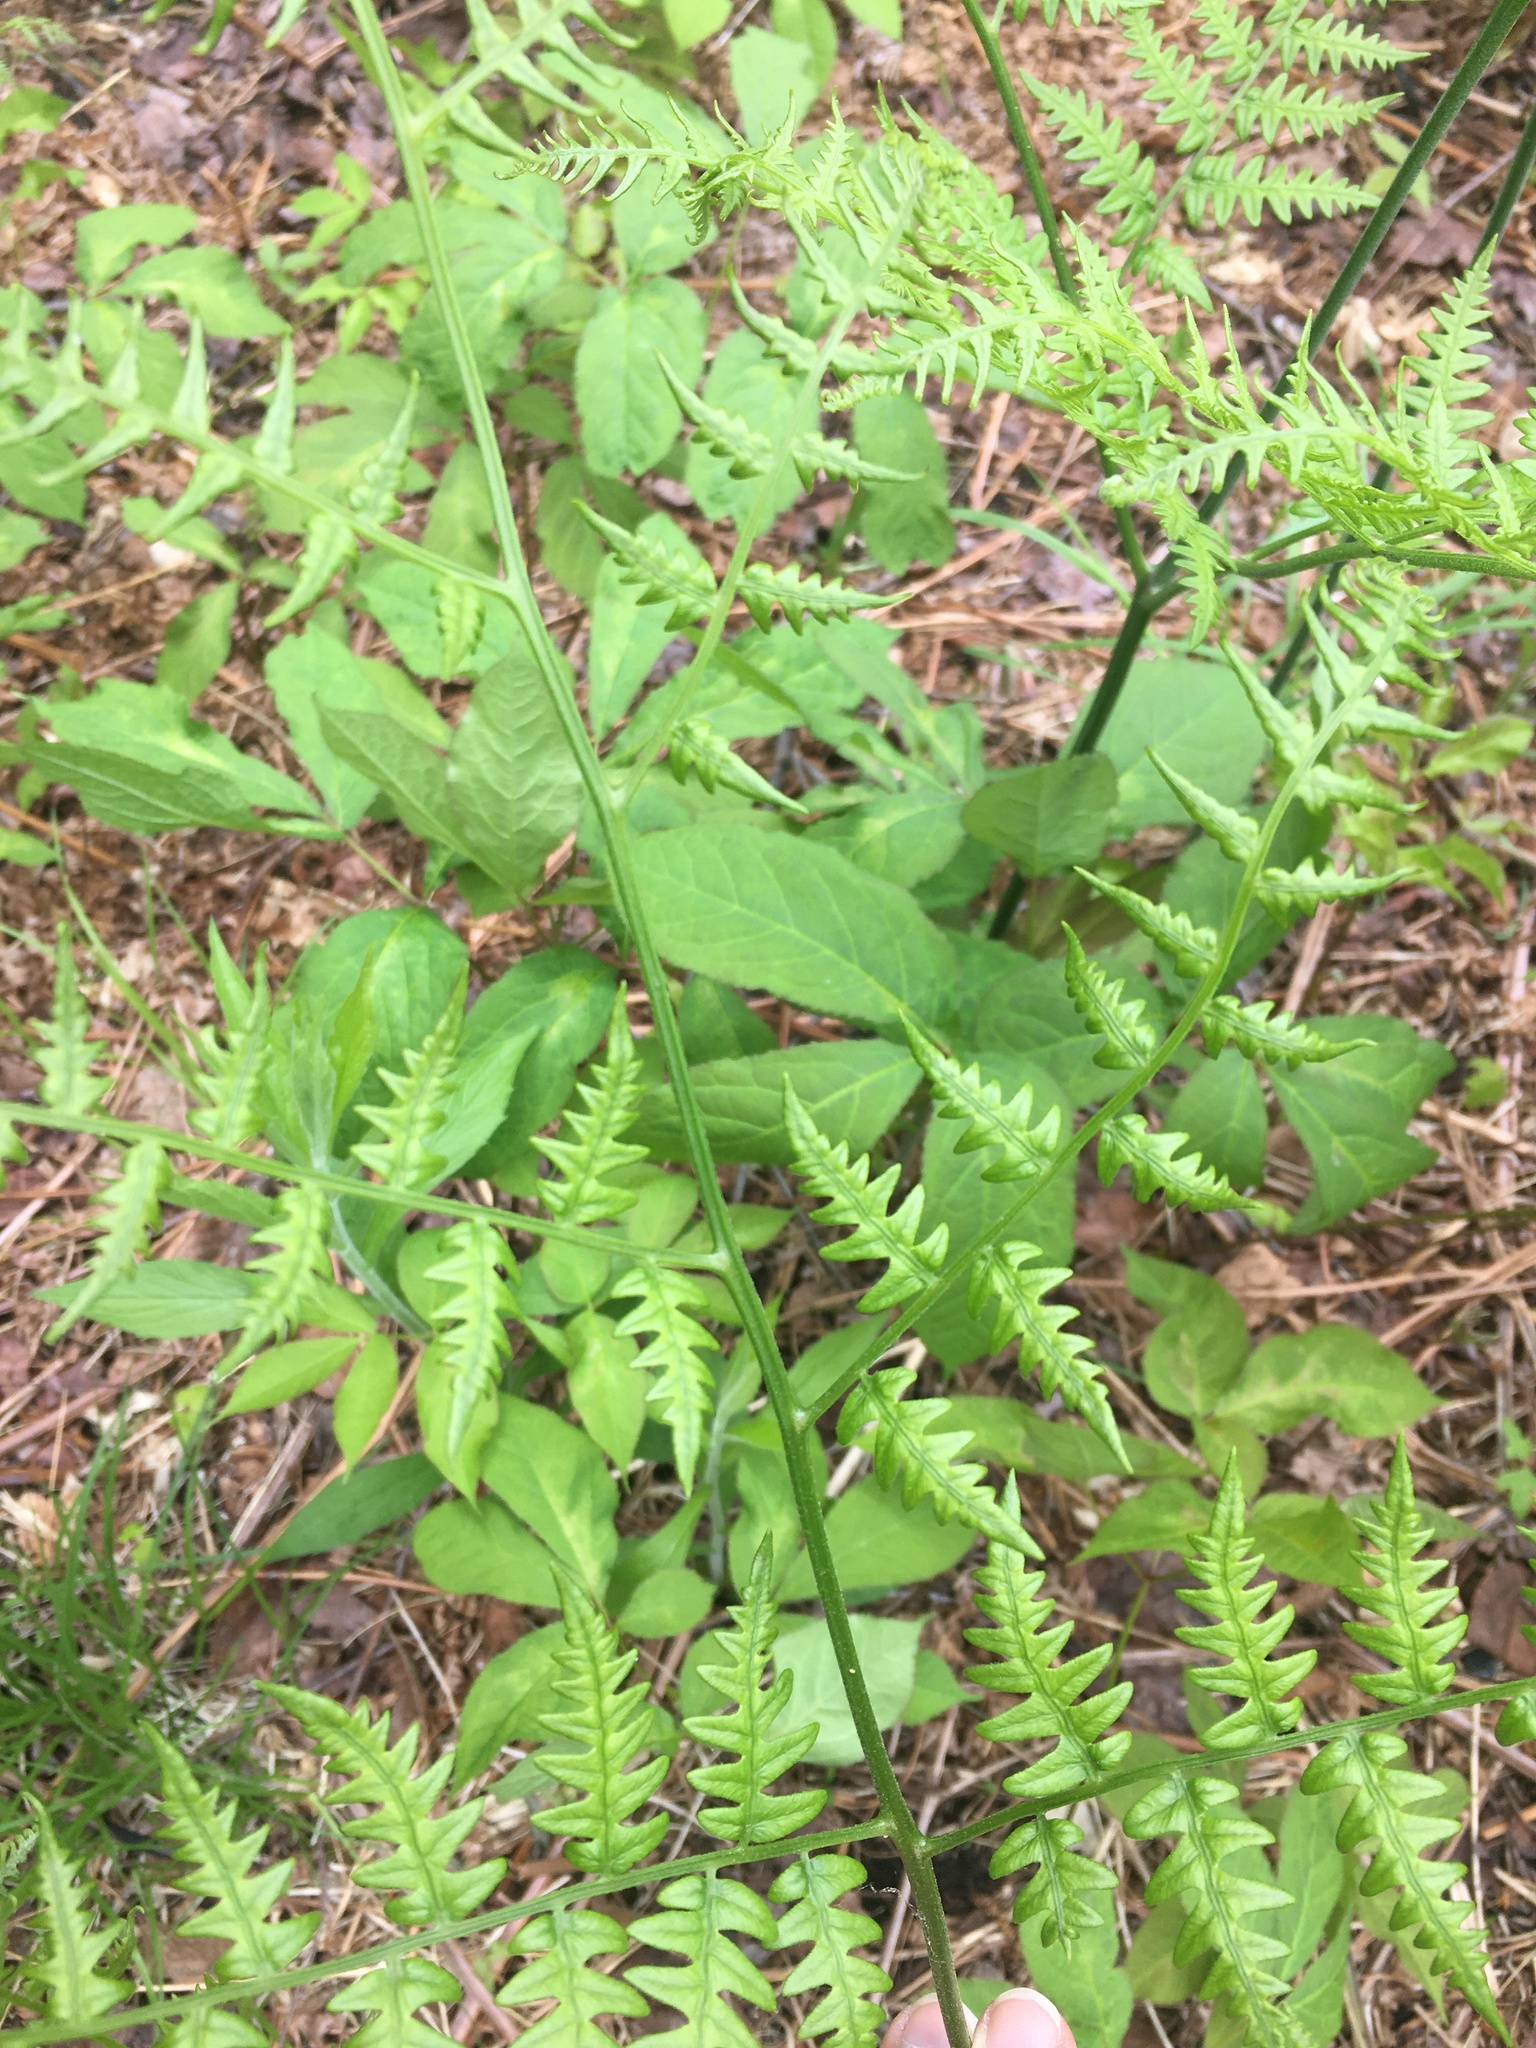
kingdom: Plantae
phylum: Tracheophyta
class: Polypodiopsida
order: Polypodiales
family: Dennstaedtiaceae
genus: Pteridium
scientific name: Pteridium aquilinum
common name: Bracken
